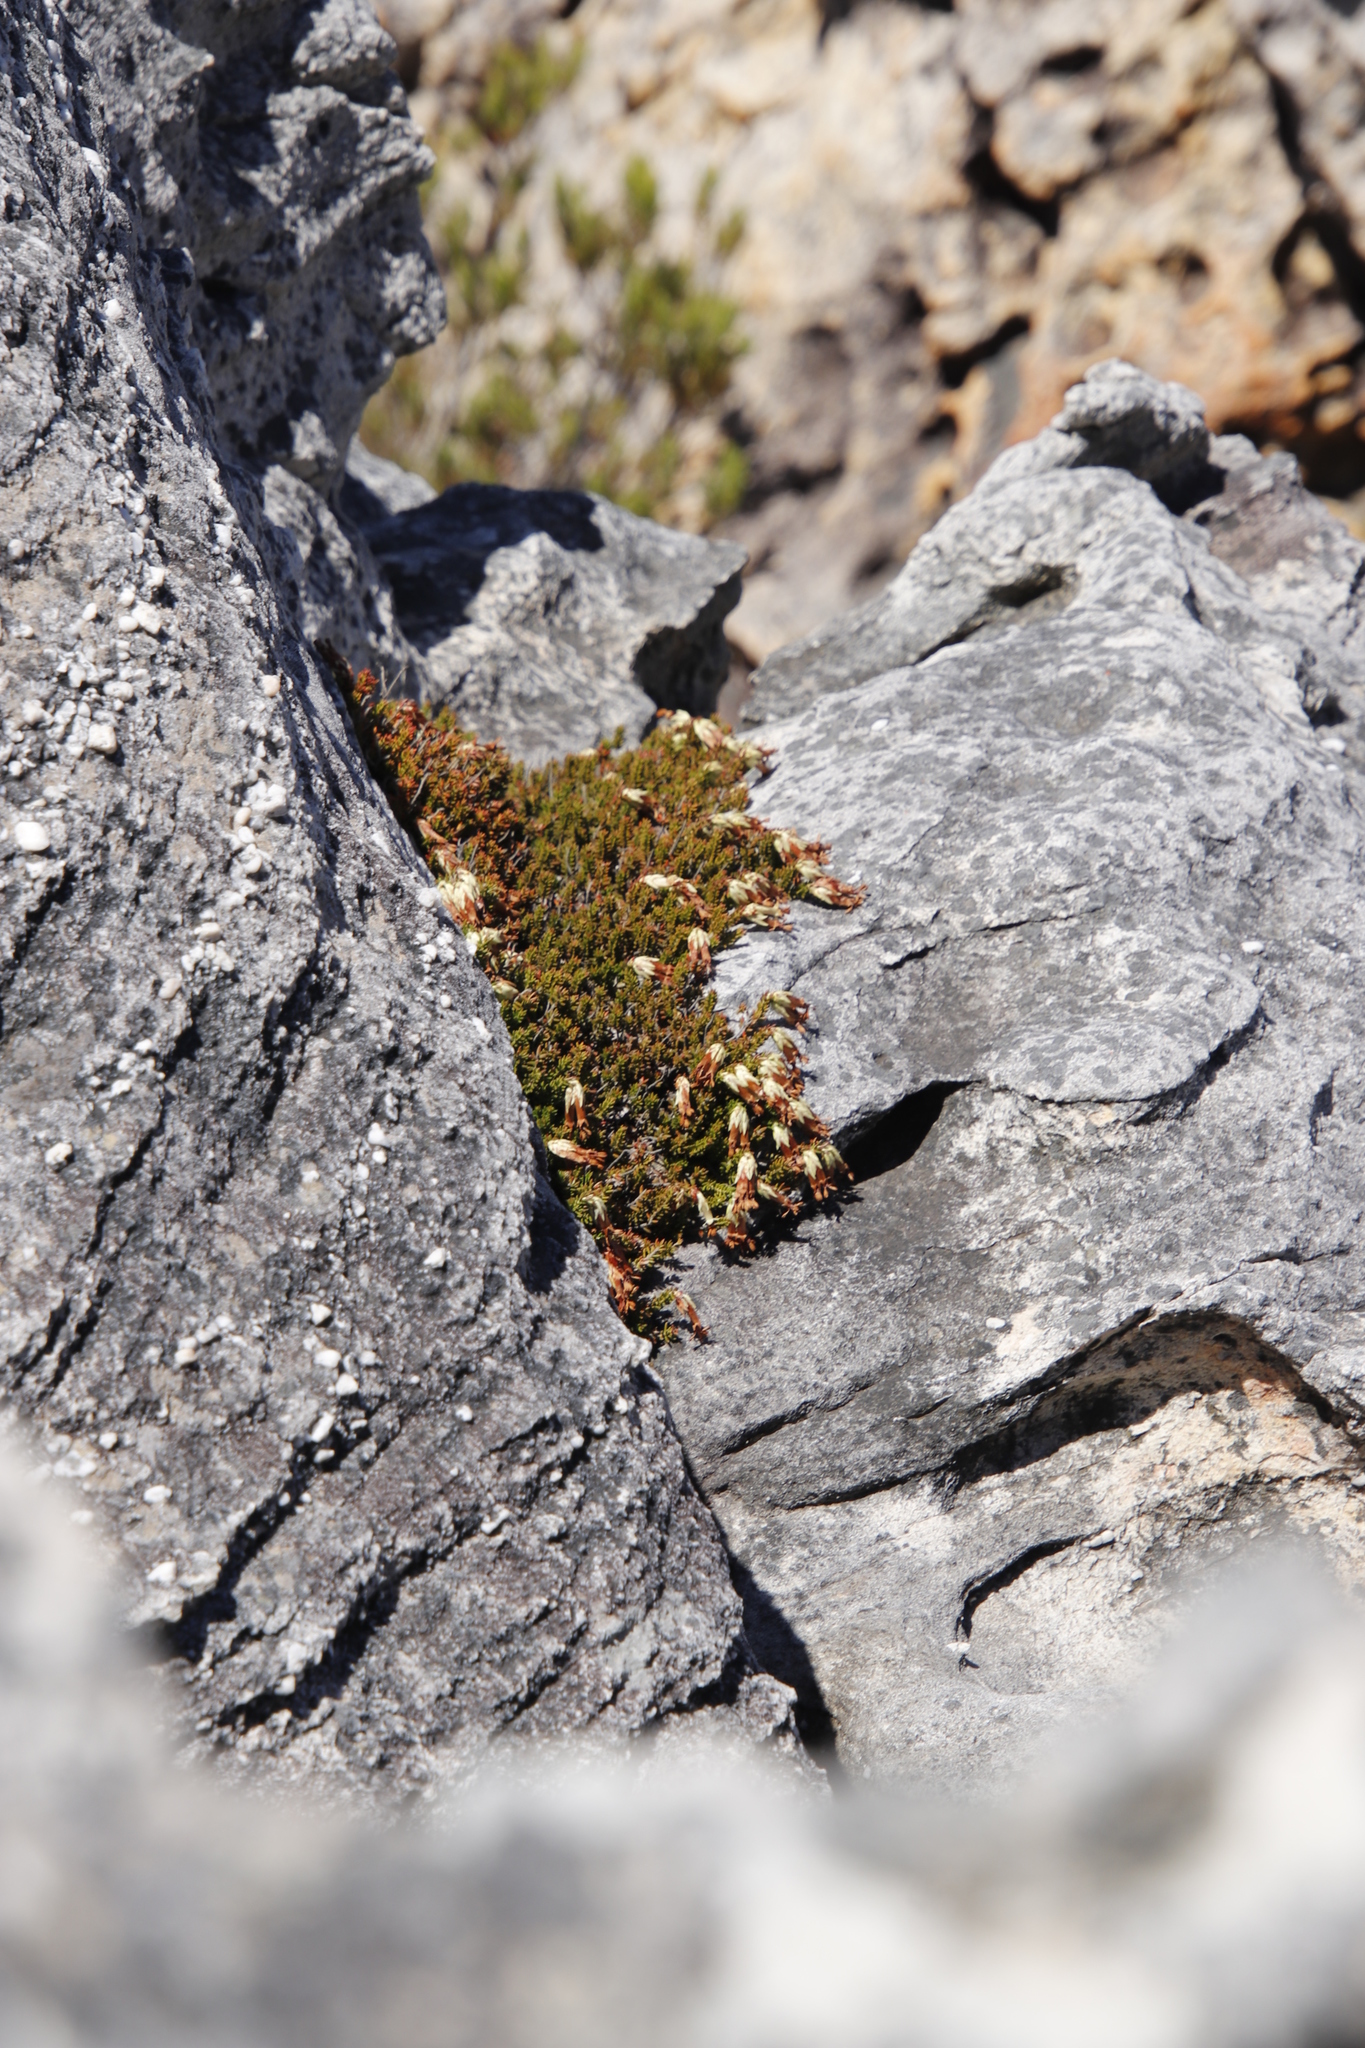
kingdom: Plantae
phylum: Tracheophyta
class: Magnoliopsida
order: Ericales
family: Ericaceae
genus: Erica
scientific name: Erica banksia
